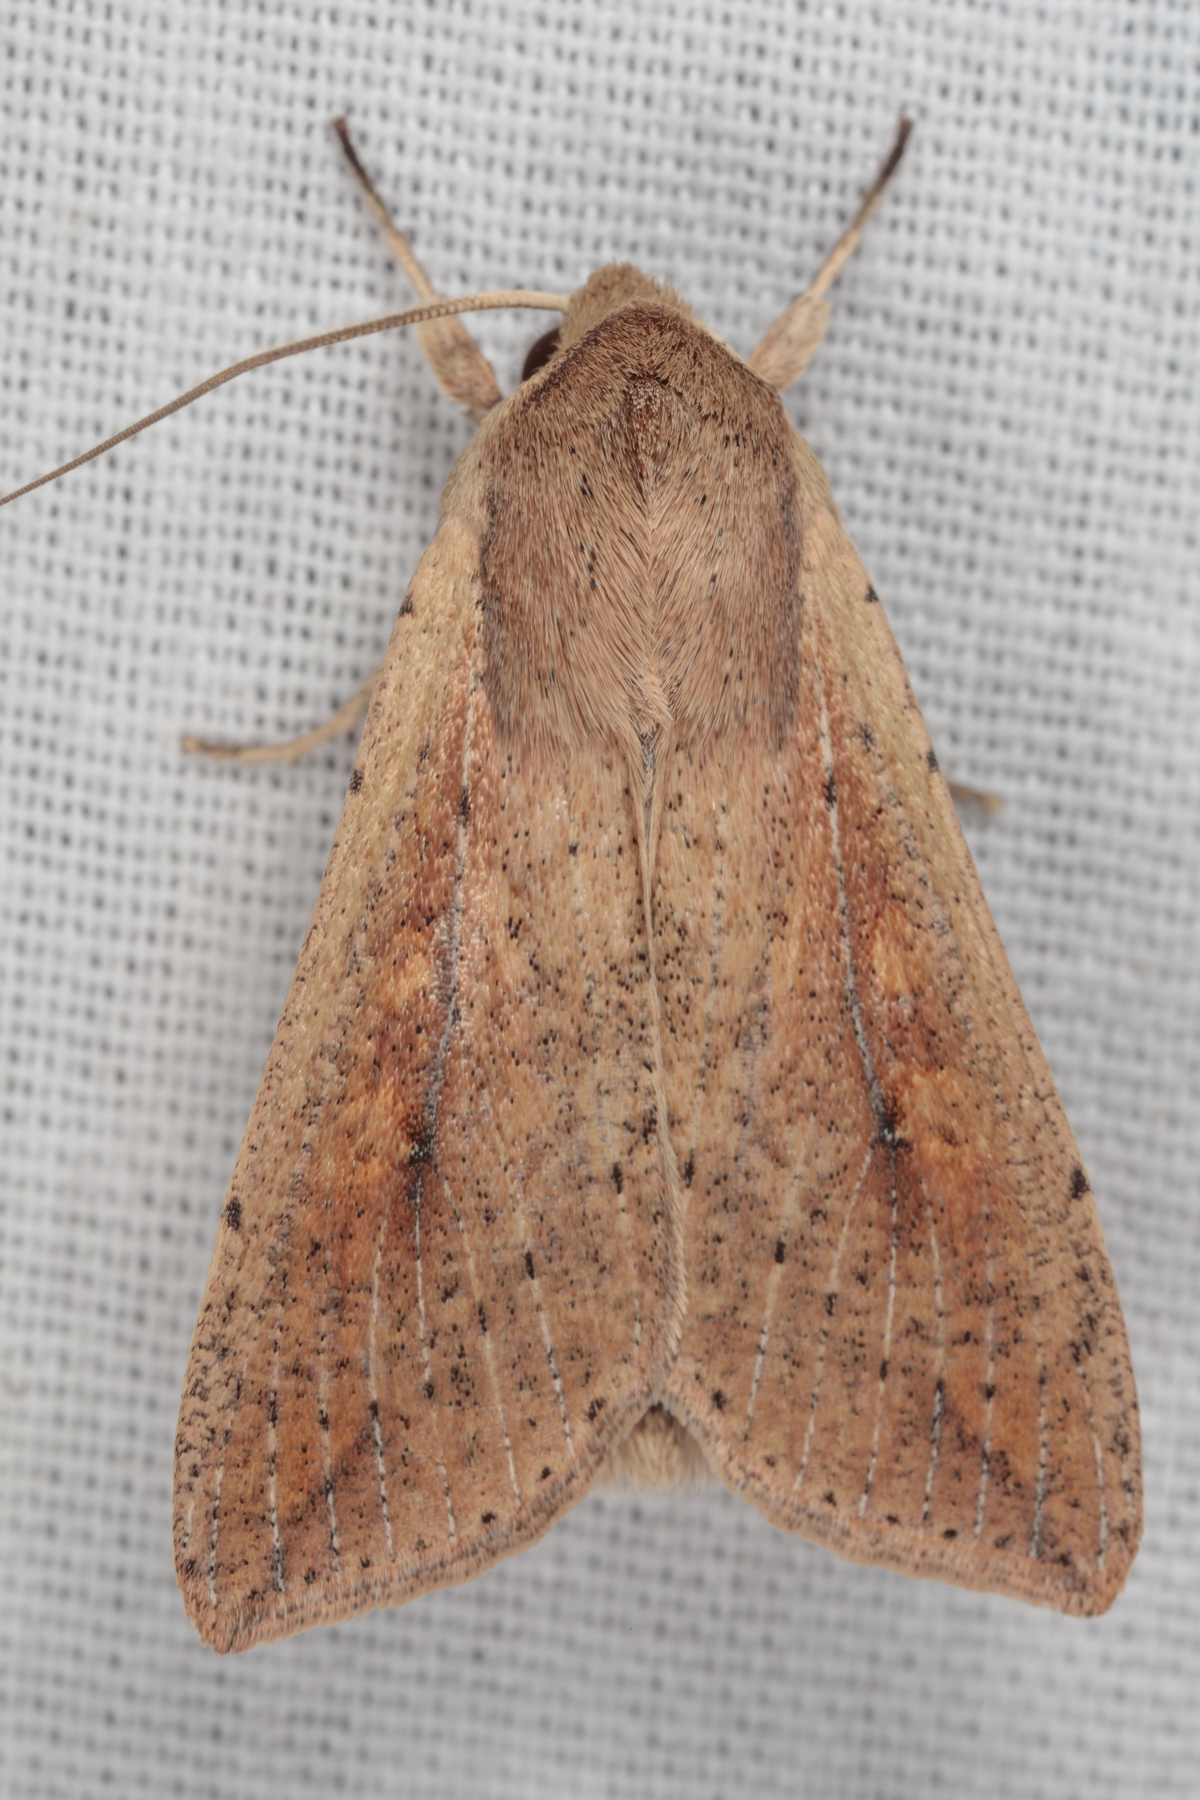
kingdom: Animalia
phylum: Arthropoda
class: Insecta
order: Lepidoptera
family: Noctuidae
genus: Mythimna
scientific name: Mythimna unipuncta
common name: White-speck
